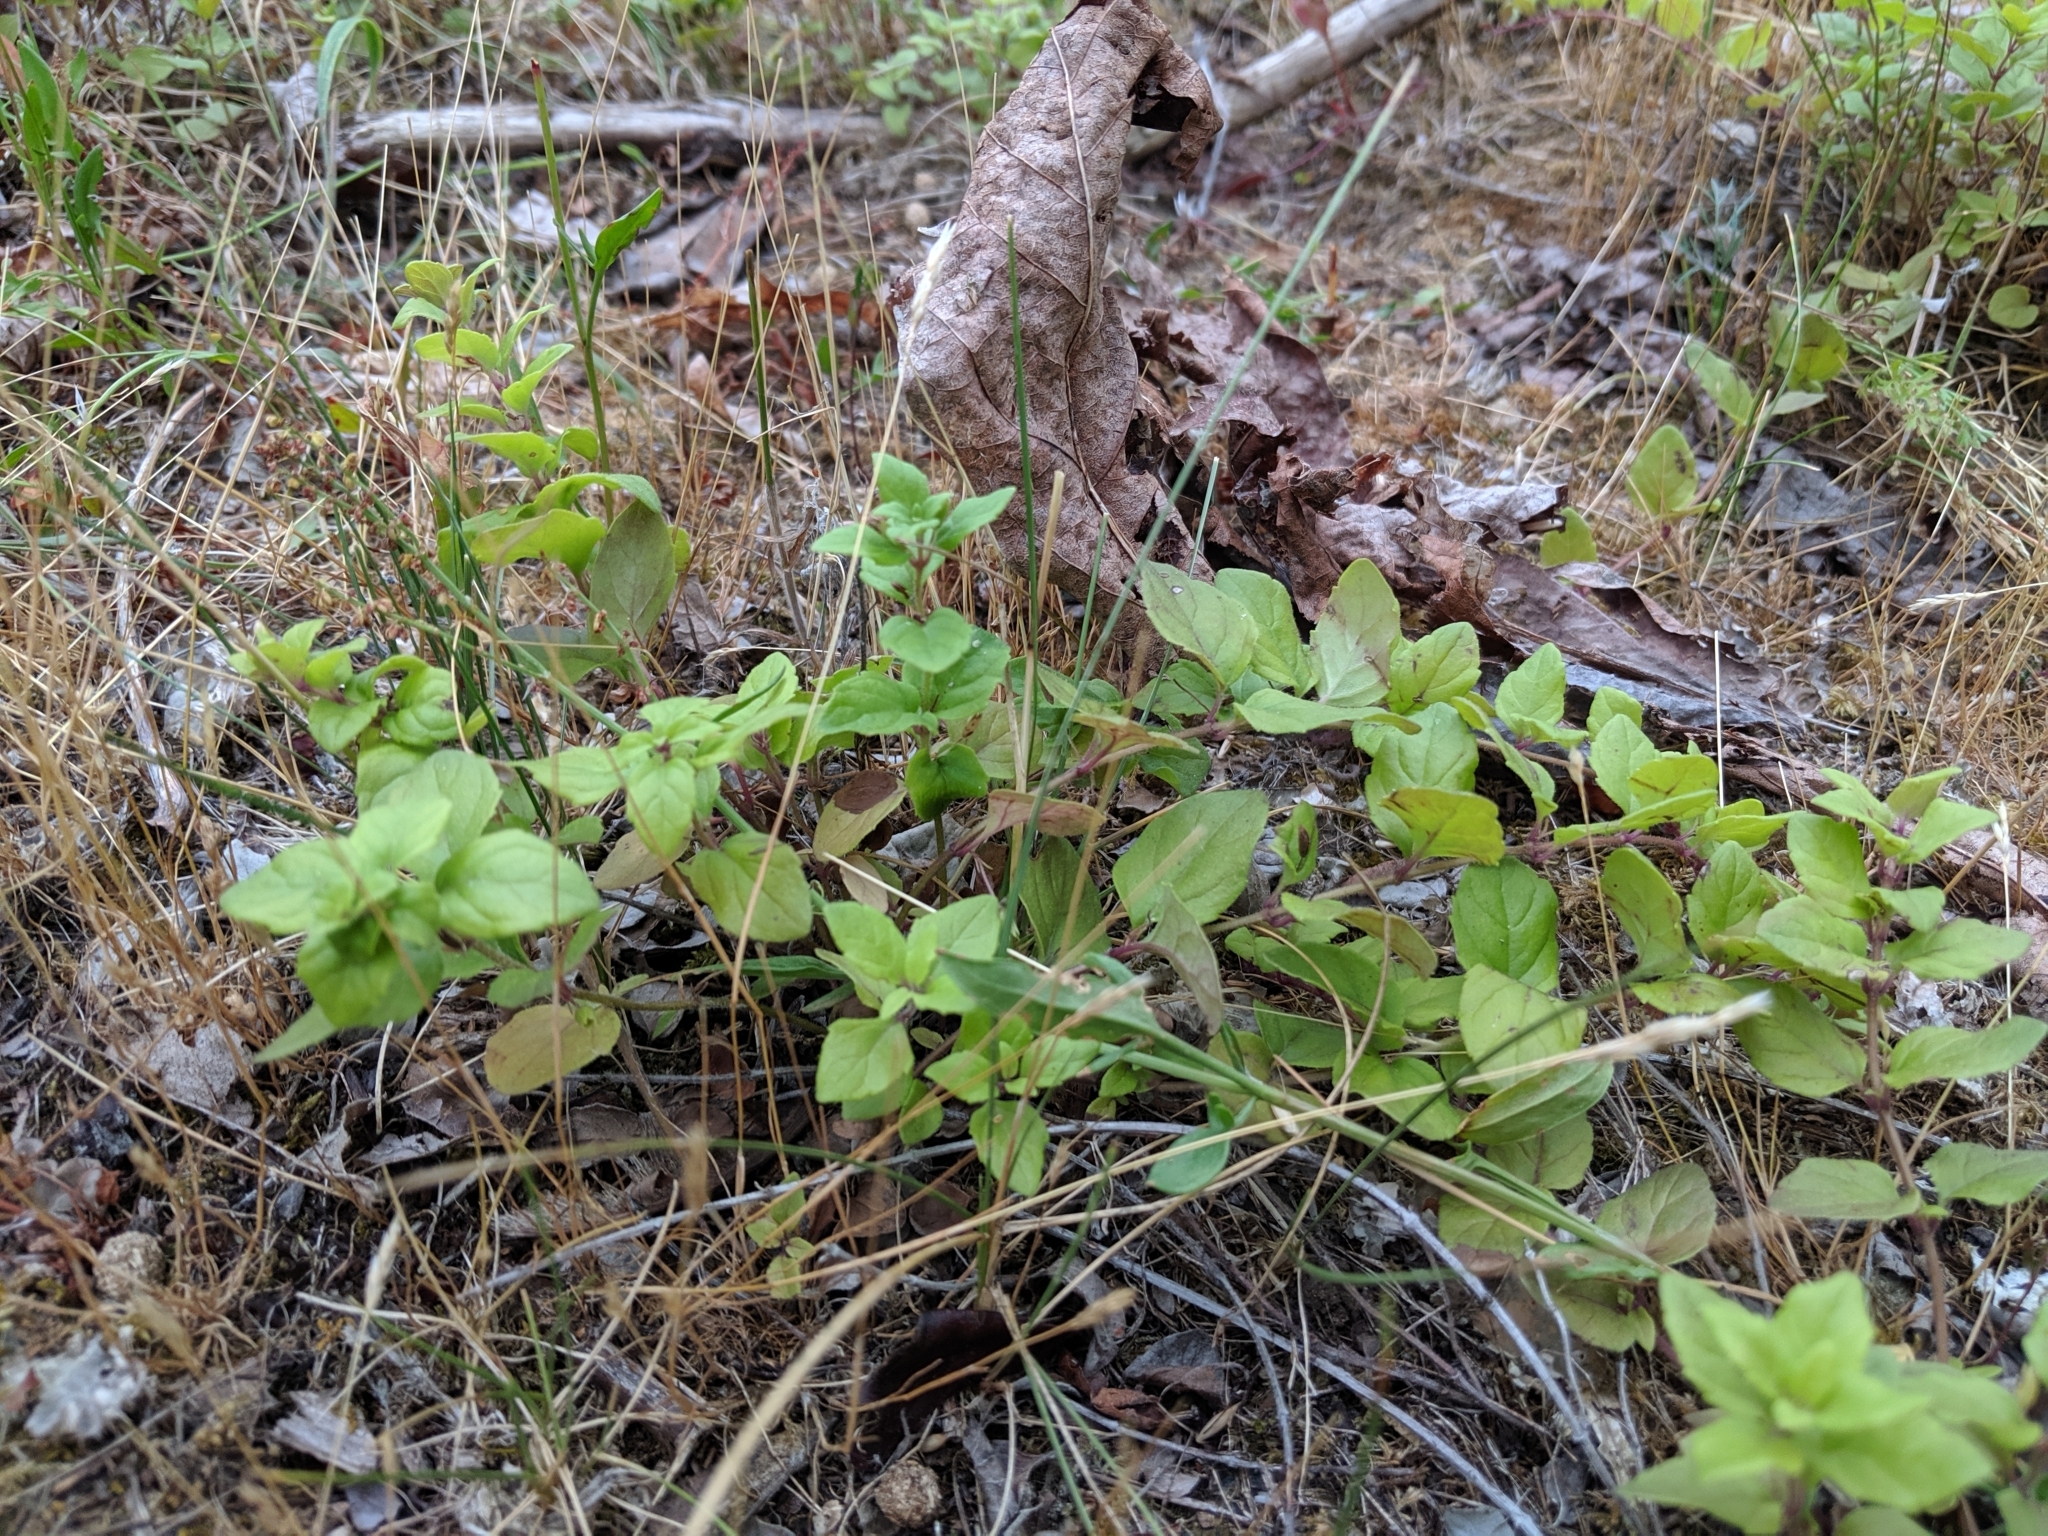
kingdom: Plantae
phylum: Tracheophyta
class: Magnoliopsida
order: Lamiales
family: Lamiaceae
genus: Micromeria
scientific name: Micromeria douglasii
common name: Yerba buena
